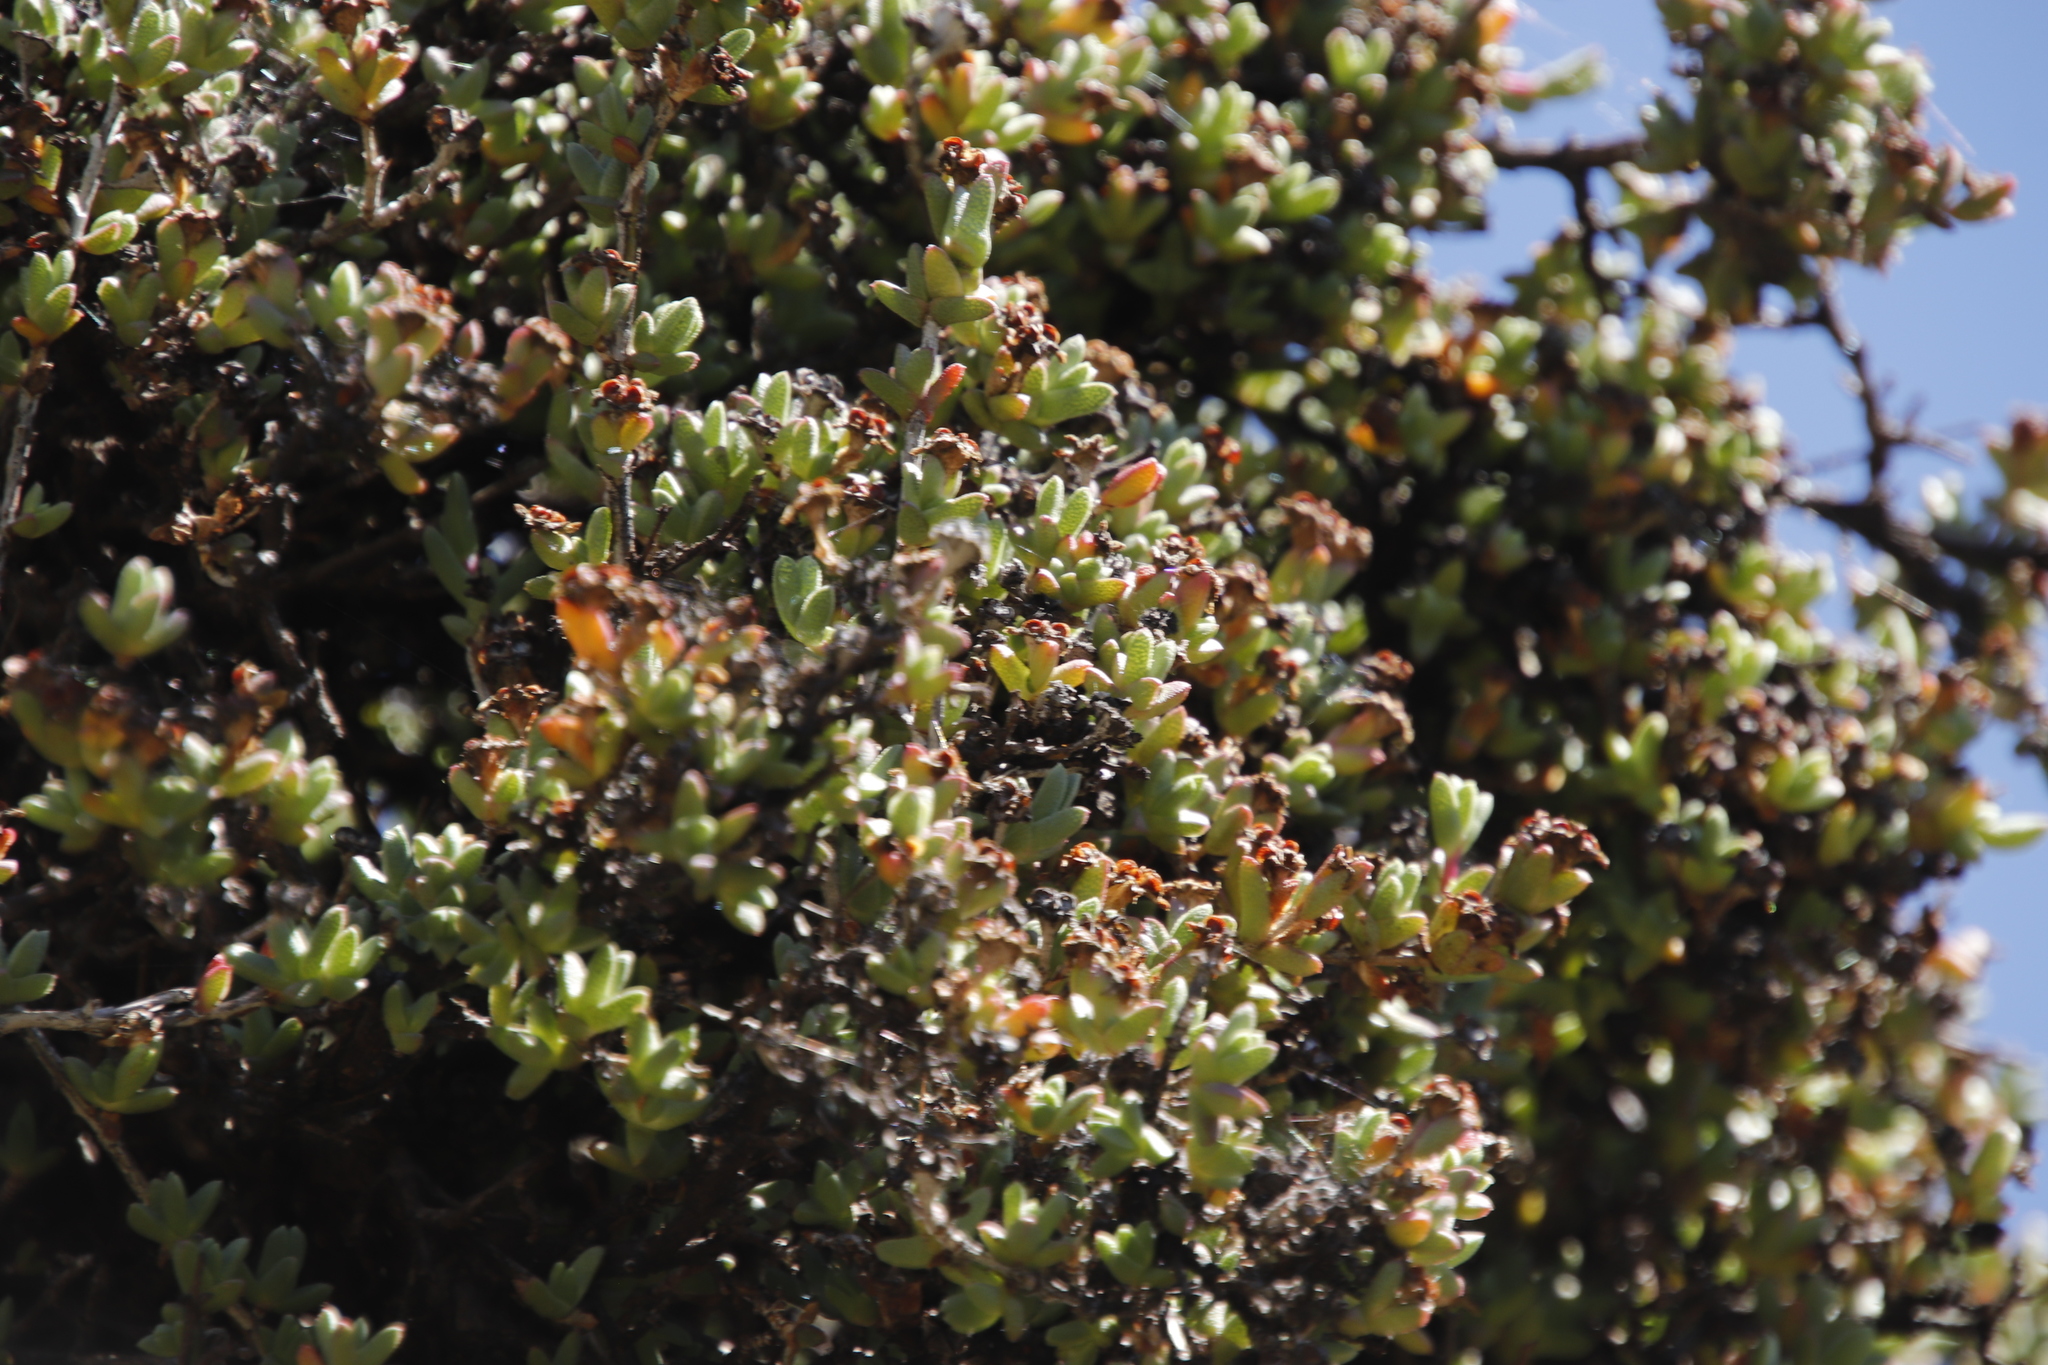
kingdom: Plantae
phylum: Tracheophyta
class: Magnoliopsida
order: Caryophyllales
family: Aizoaceae
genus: Ruschia
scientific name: Ruschia putterillii
